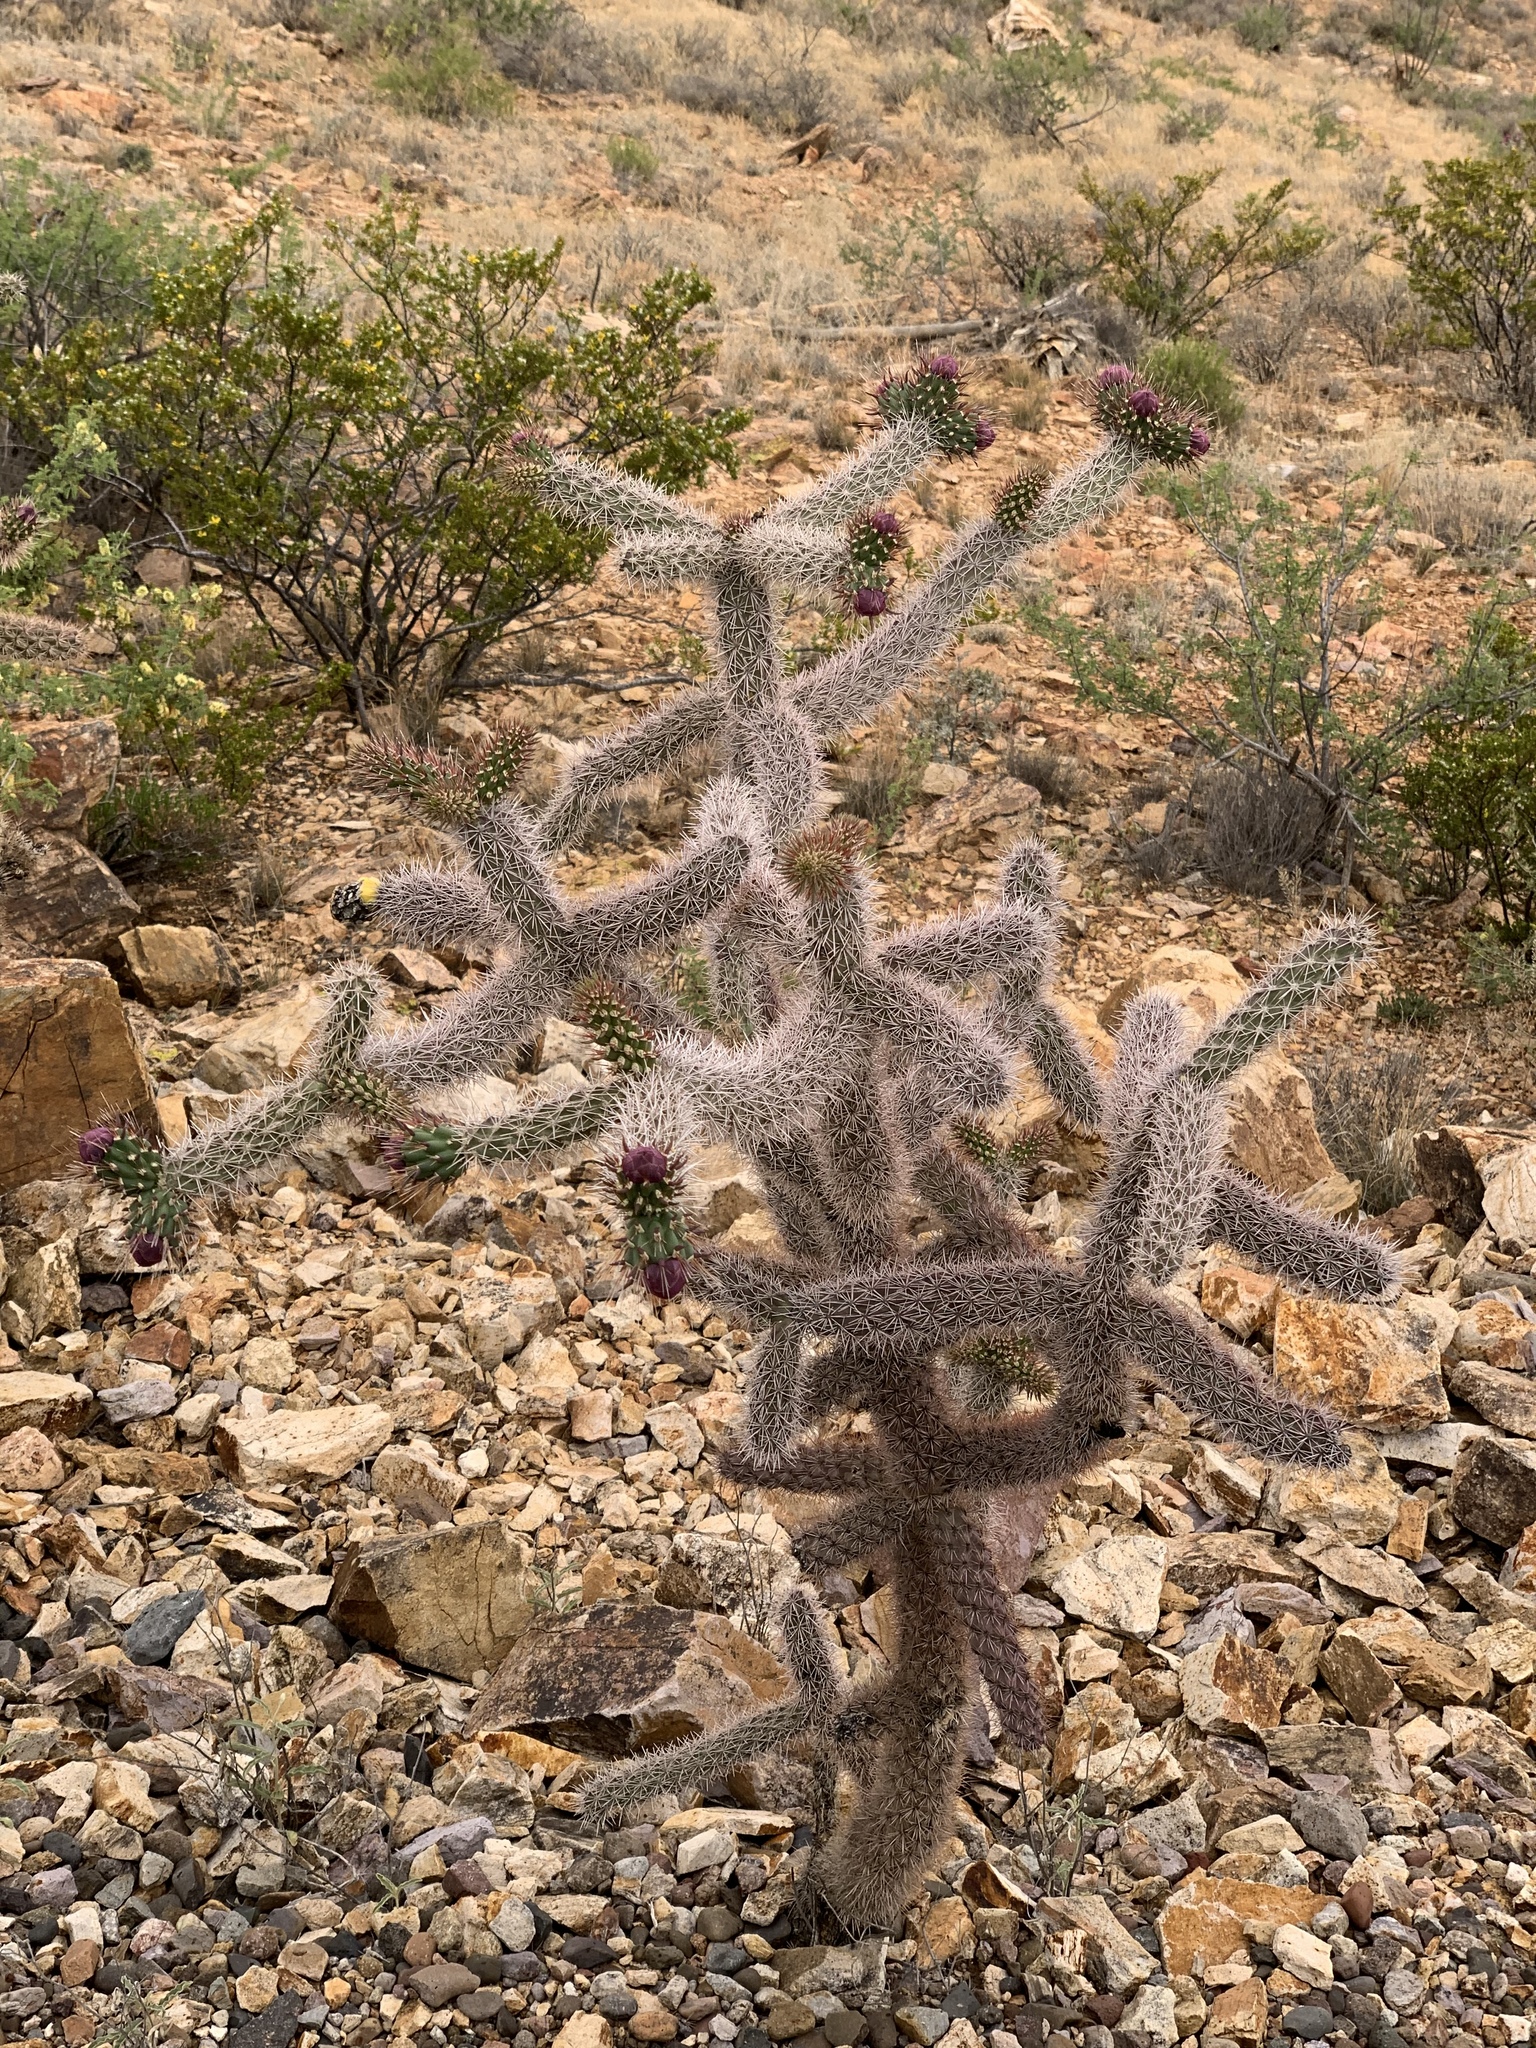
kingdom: Plantae
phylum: Tracheophyta
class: Magnoliopsida
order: Caryophyllales
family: Cactaceae
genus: Cylindropuntia
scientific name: Cylindropuntia imbricata
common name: Candelabrum cactus
